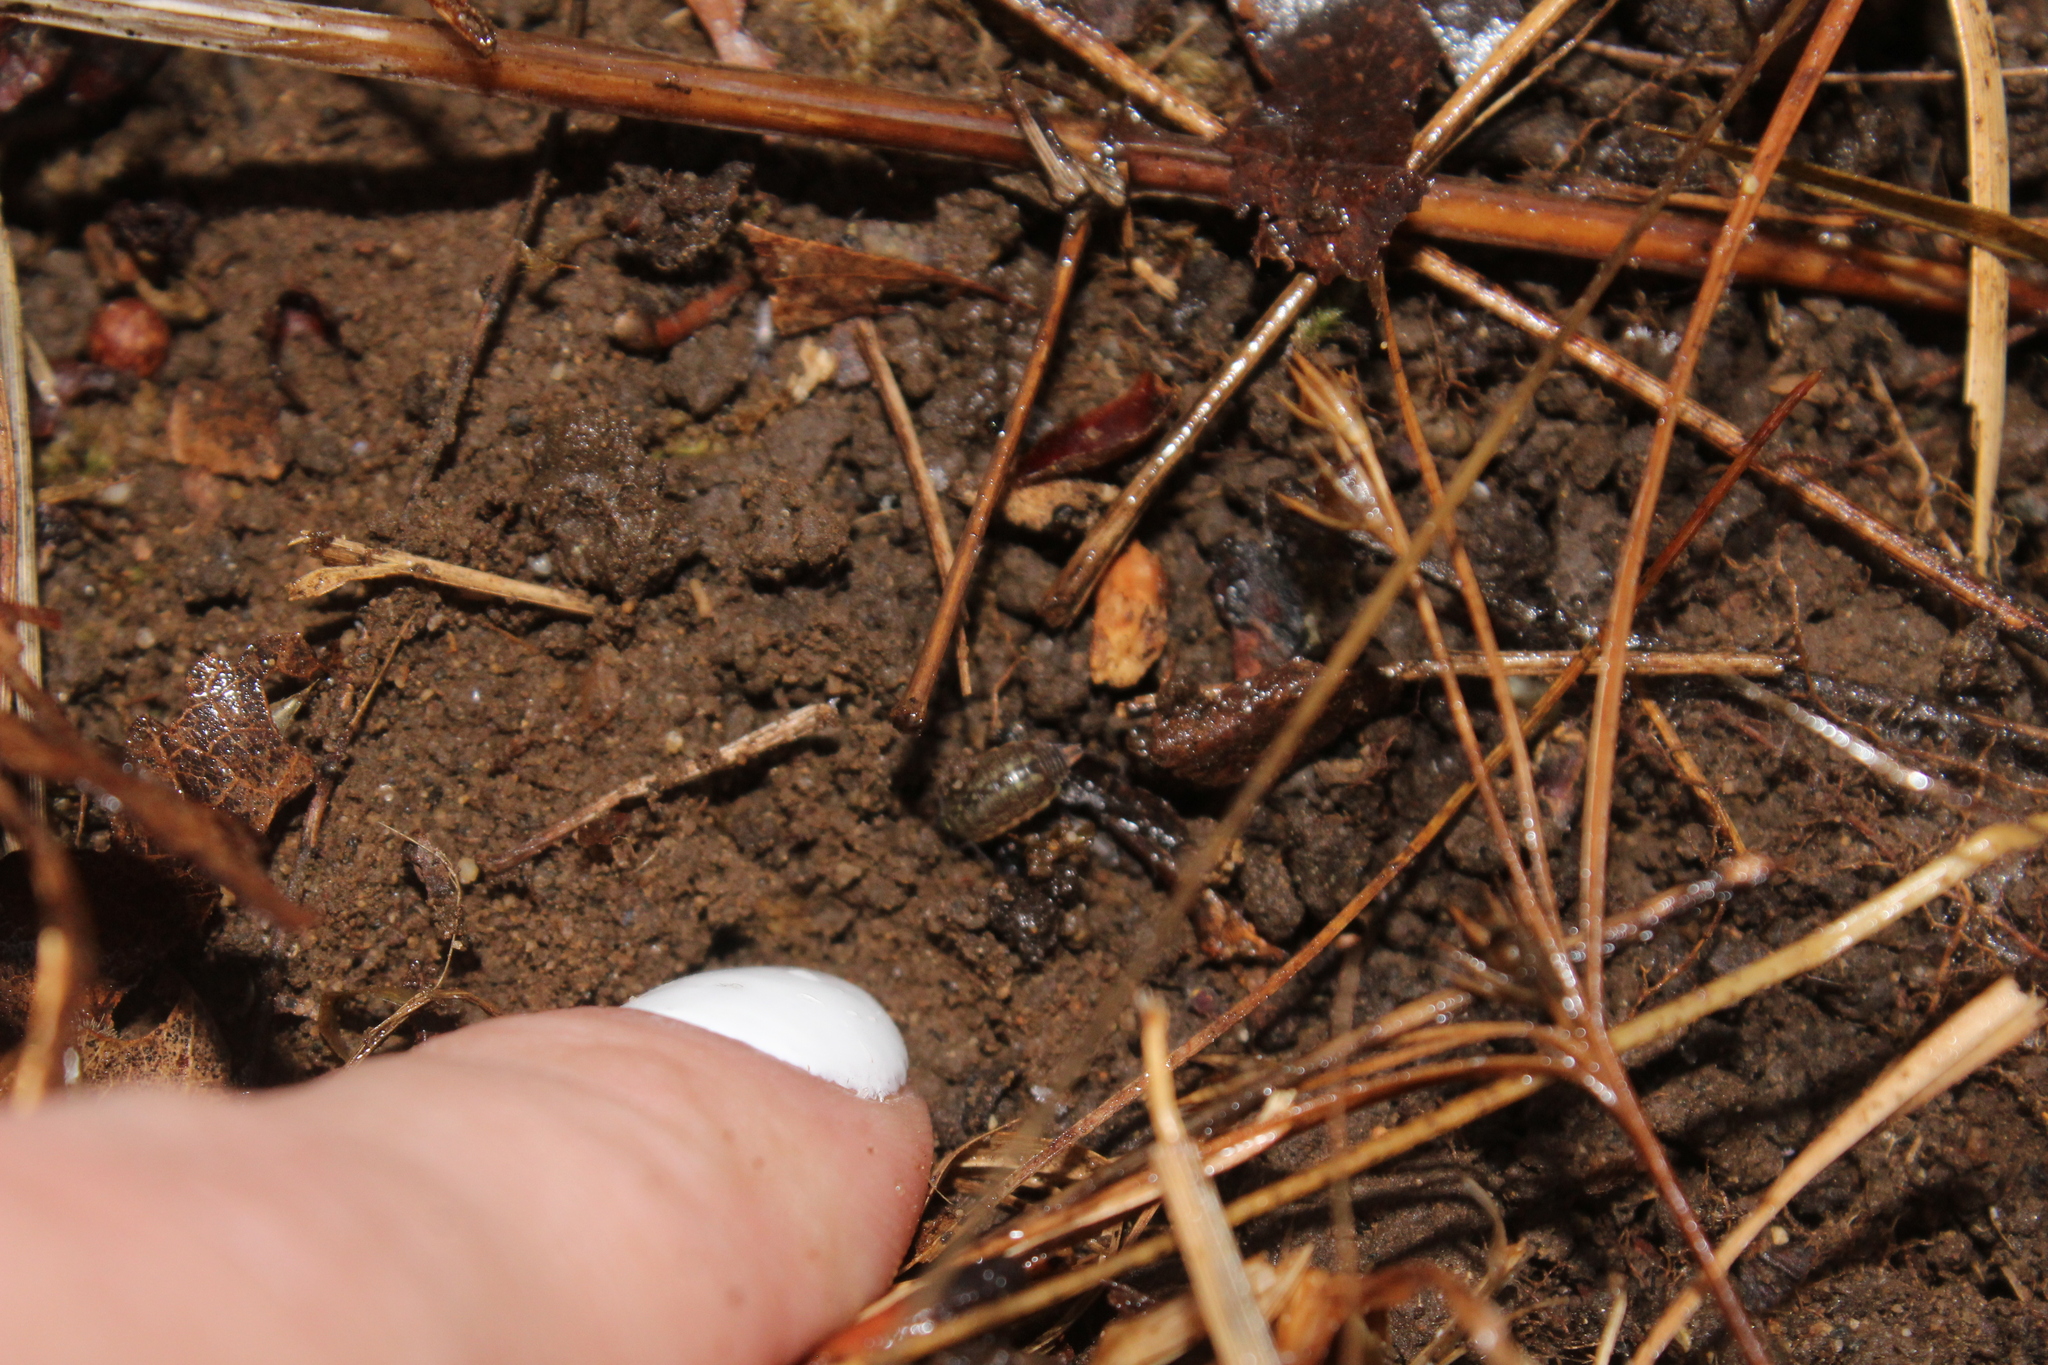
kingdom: Animalia
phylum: Arthropoda
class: Malacostraca
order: Isopoda
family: Philosciidae
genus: Philoscia
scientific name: Philoscia muscorum
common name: Common striped woodlouse
